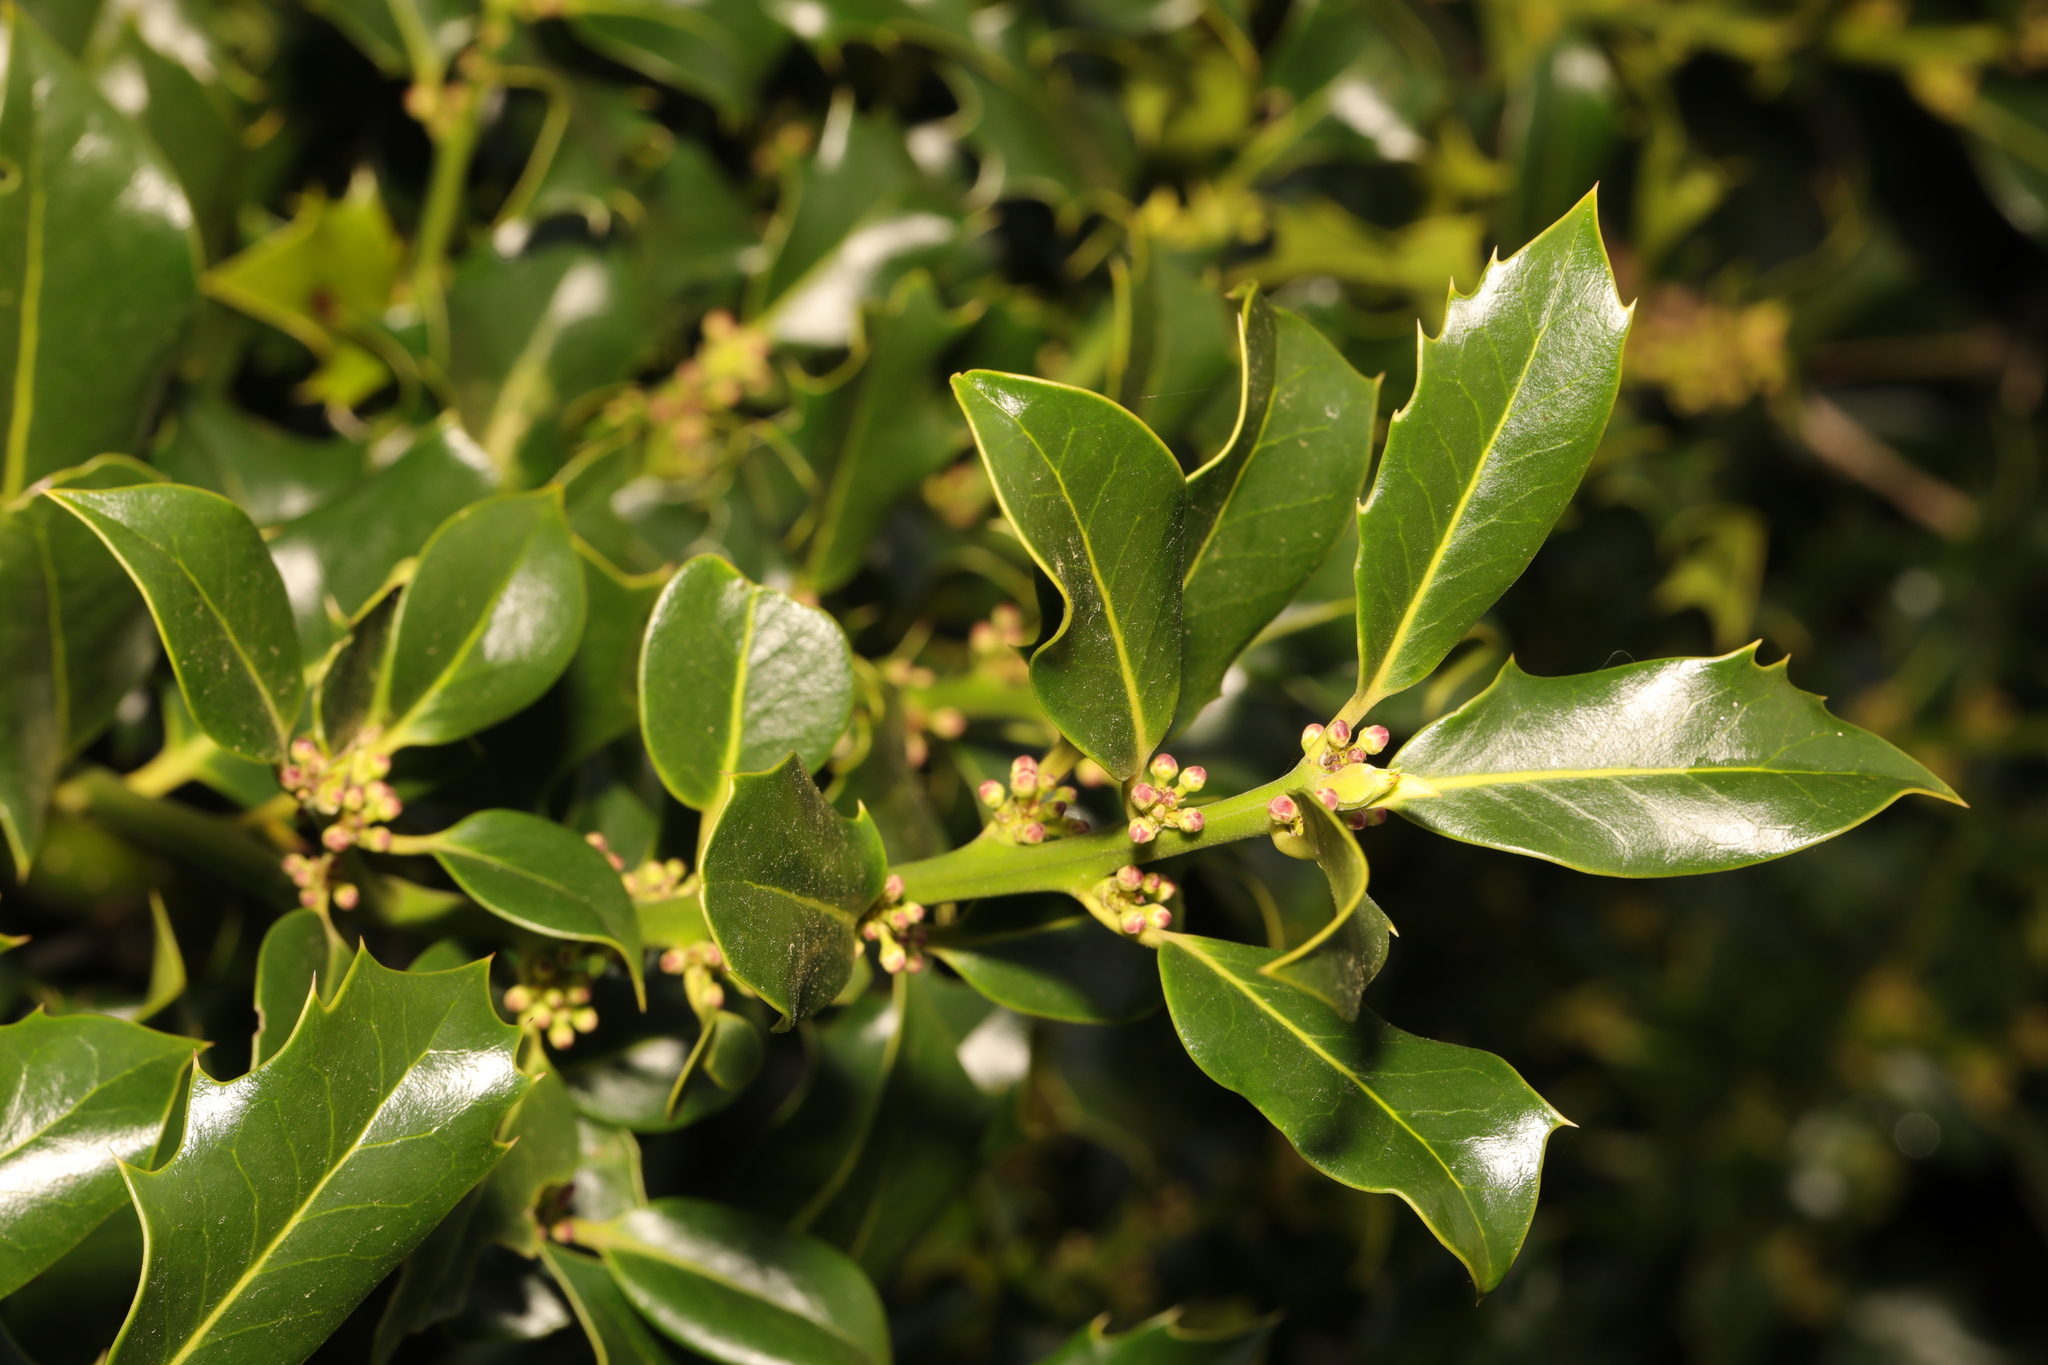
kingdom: Plantae
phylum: Tracheophyta
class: Magnoliopsida
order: Aquifoliales
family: Aquifoliaceae
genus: Ilex
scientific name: Ilex aquifolium
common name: English holly
